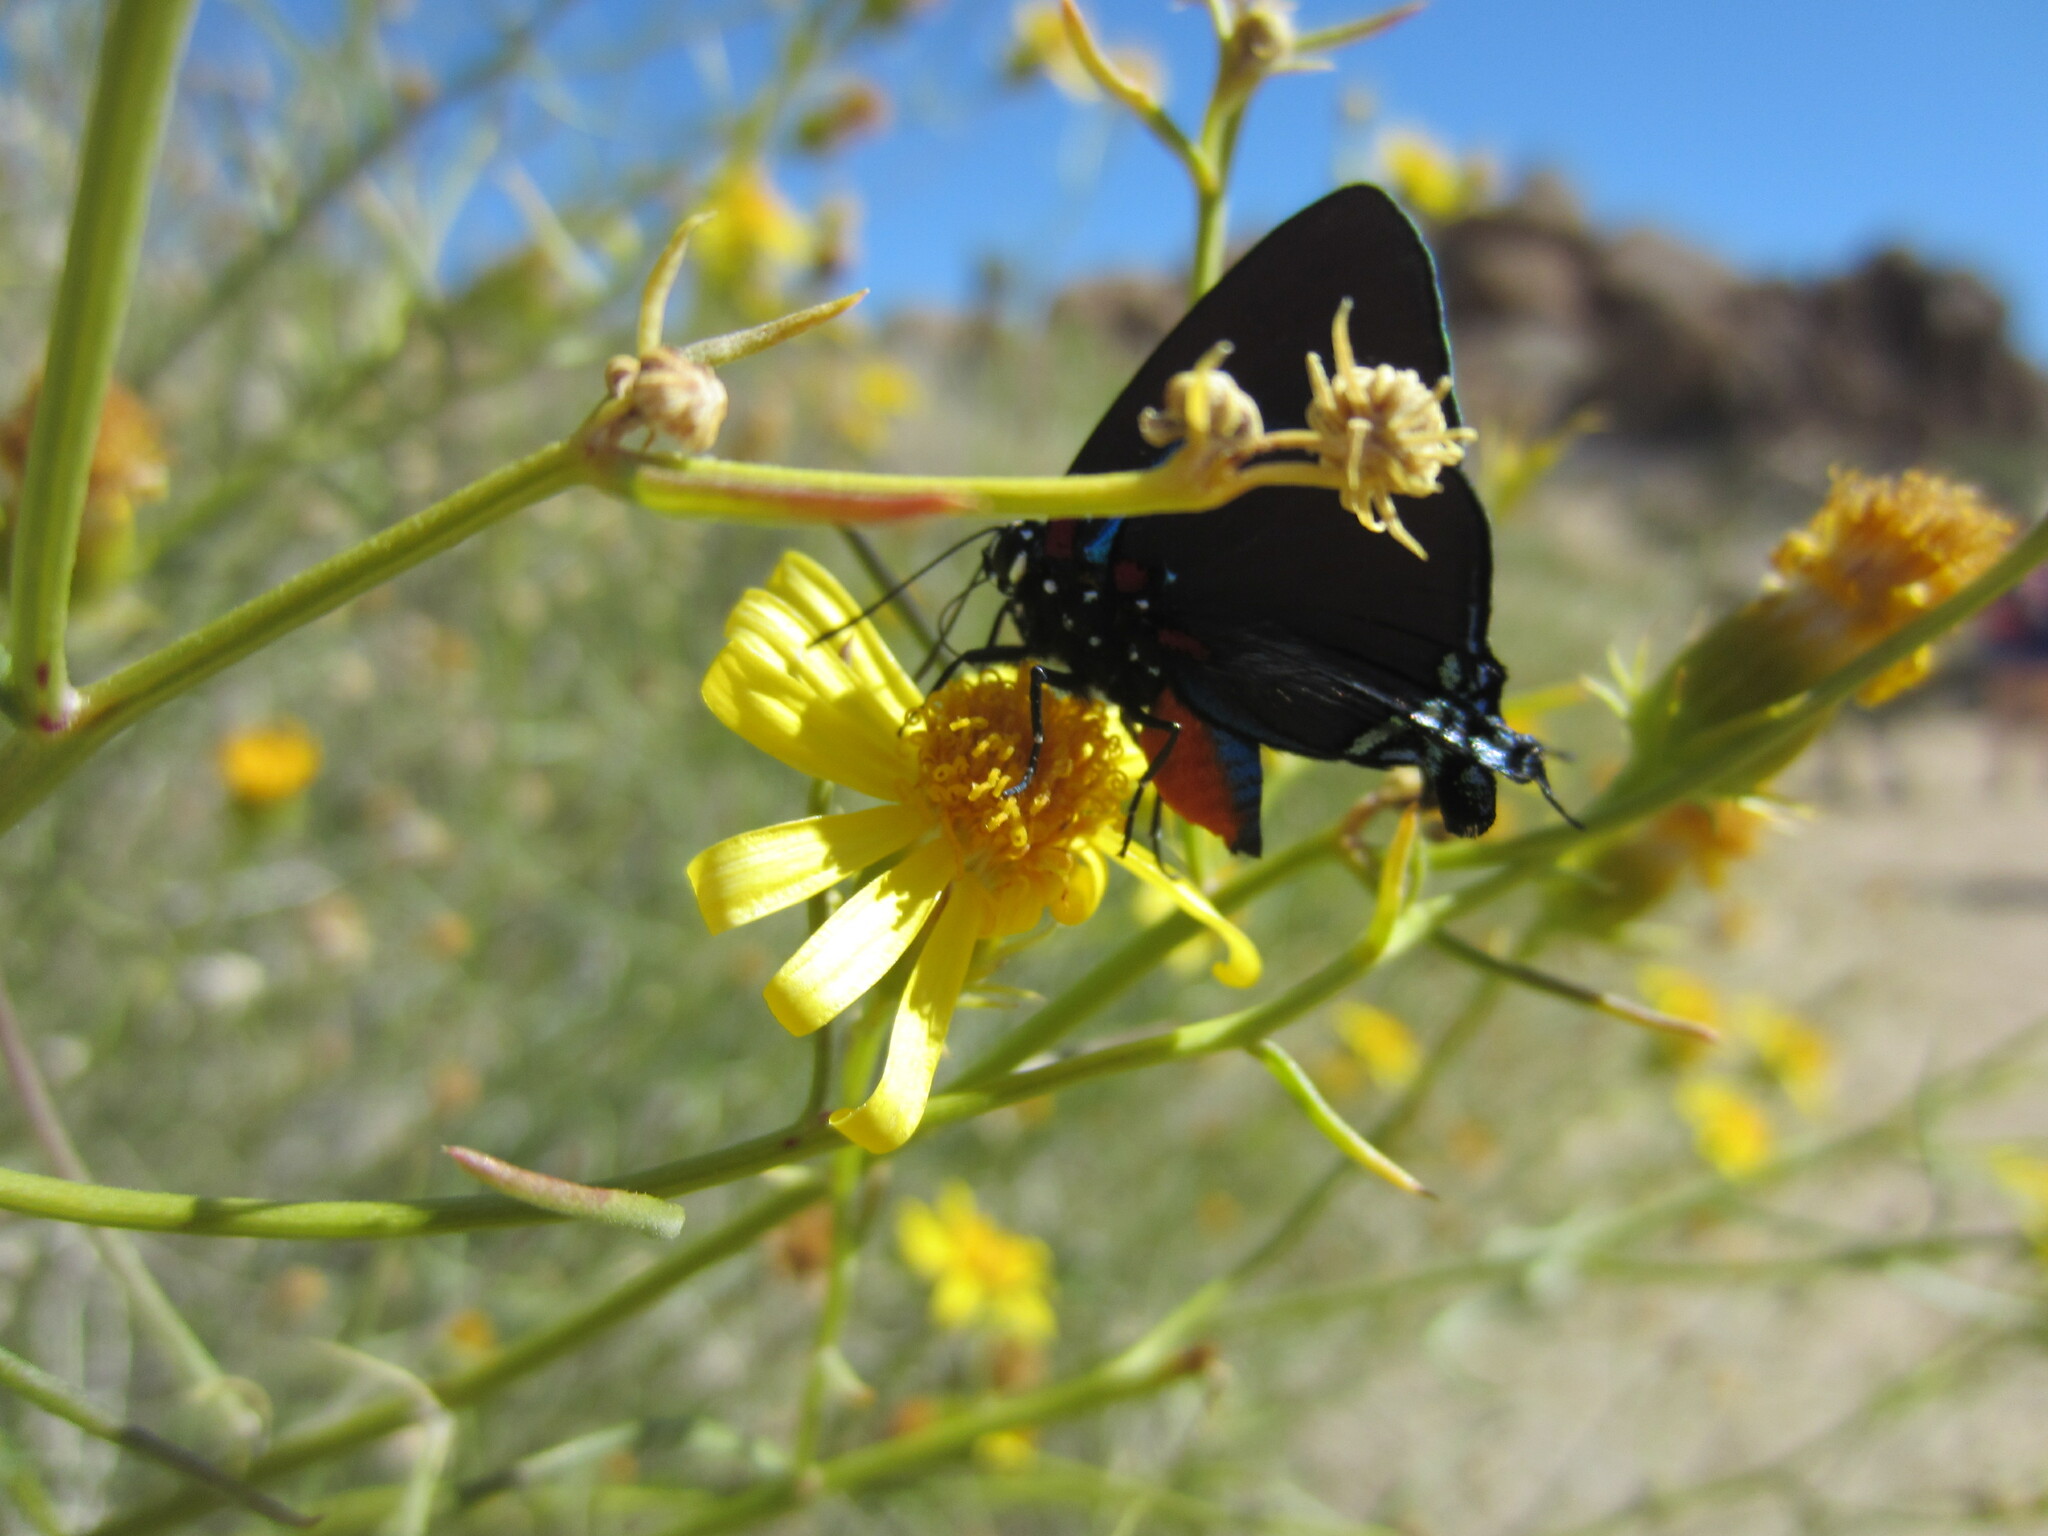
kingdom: Animalia
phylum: Arthropoda
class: Insecta
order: Lepidoptera
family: Lycaenidae
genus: Atlides
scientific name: Atlides halesus
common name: Great purple hairstreak
